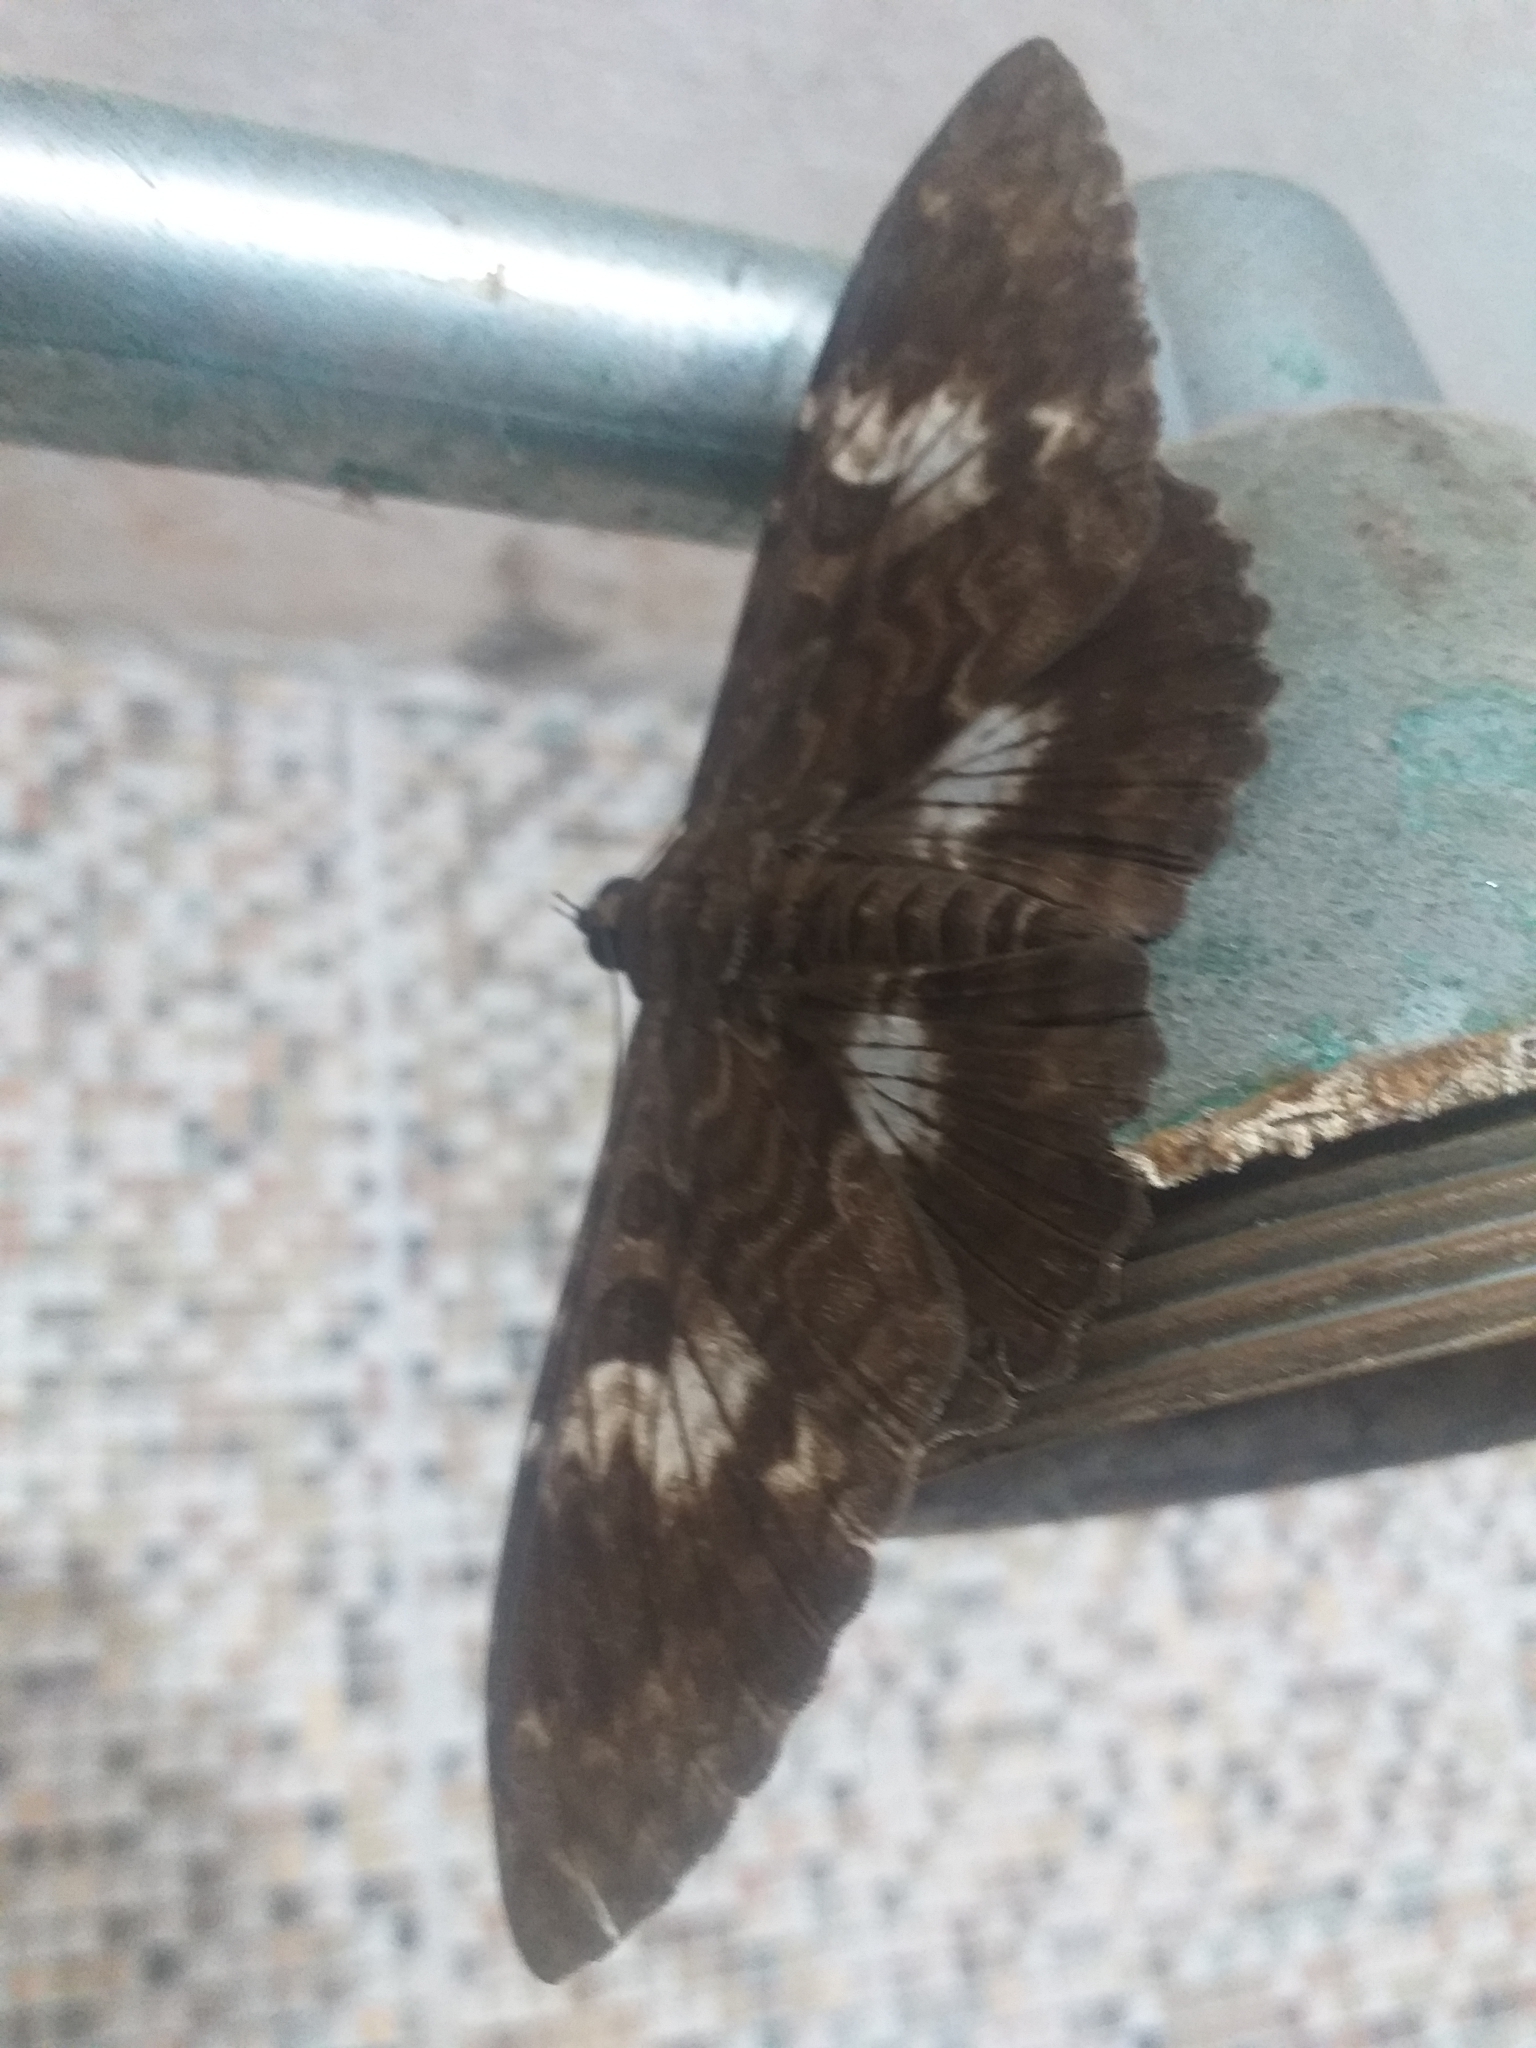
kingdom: Animalia
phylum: Arthropoda
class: Insecta
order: Lepidoptera
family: Erebidae
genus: Letis
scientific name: Letis specularis
